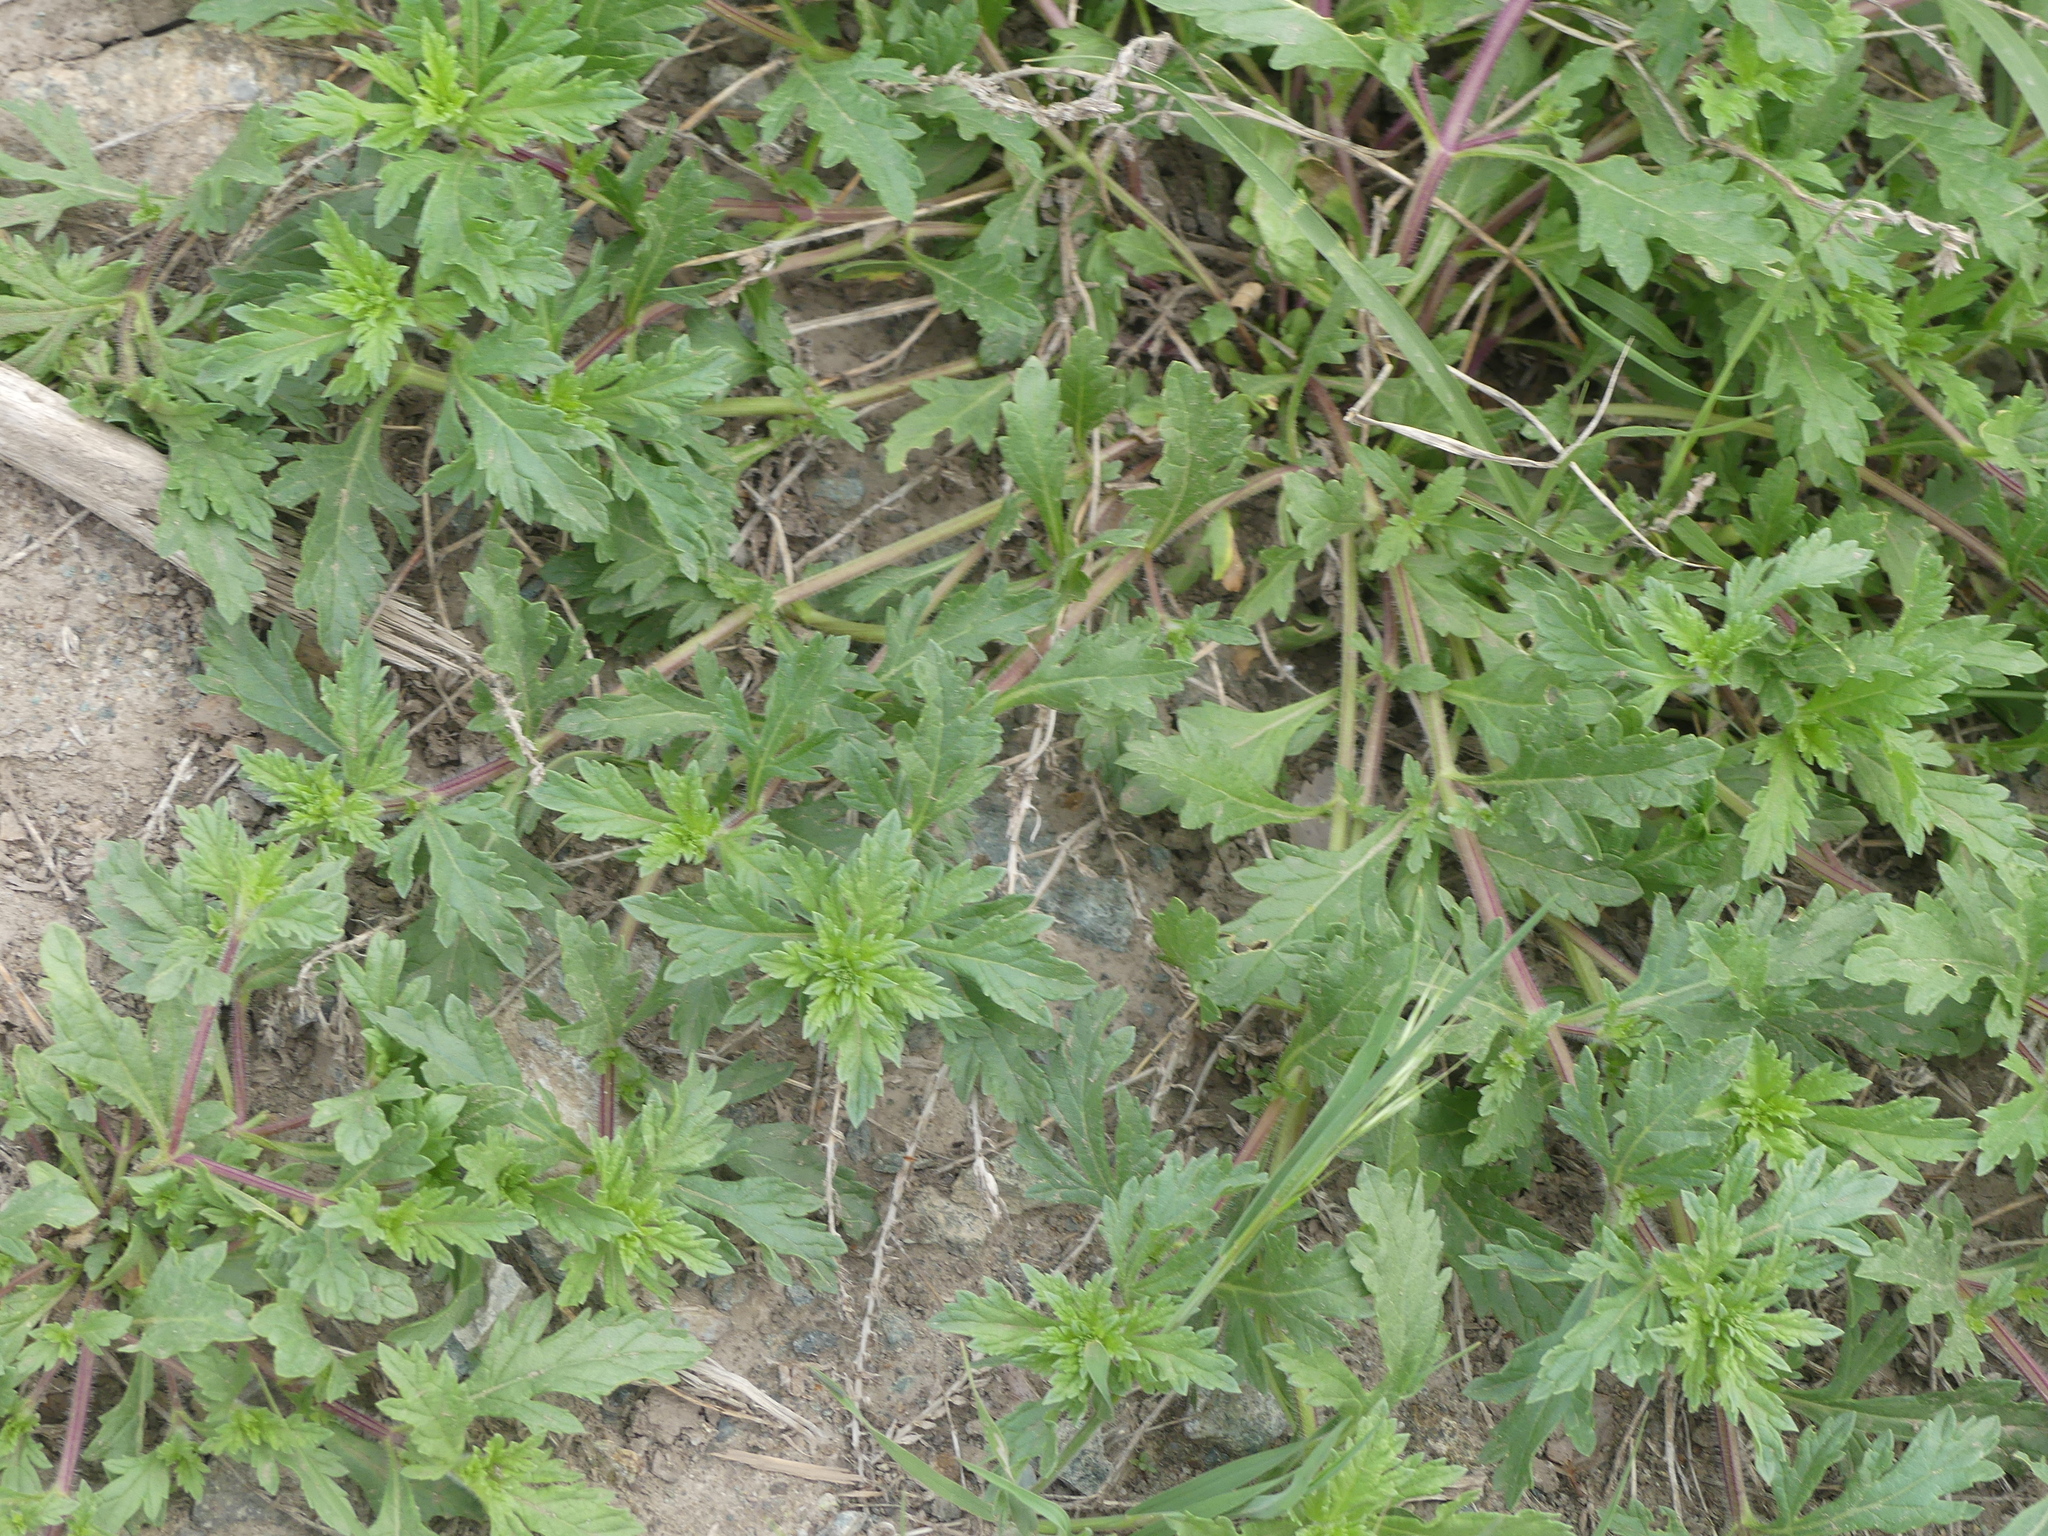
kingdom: Plantae
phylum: Tracheophyta
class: Magnoliopsida
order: Lamiales
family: Verbenaceae
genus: Verbena
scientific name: Verbena bracteata
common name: Bracted vervain
